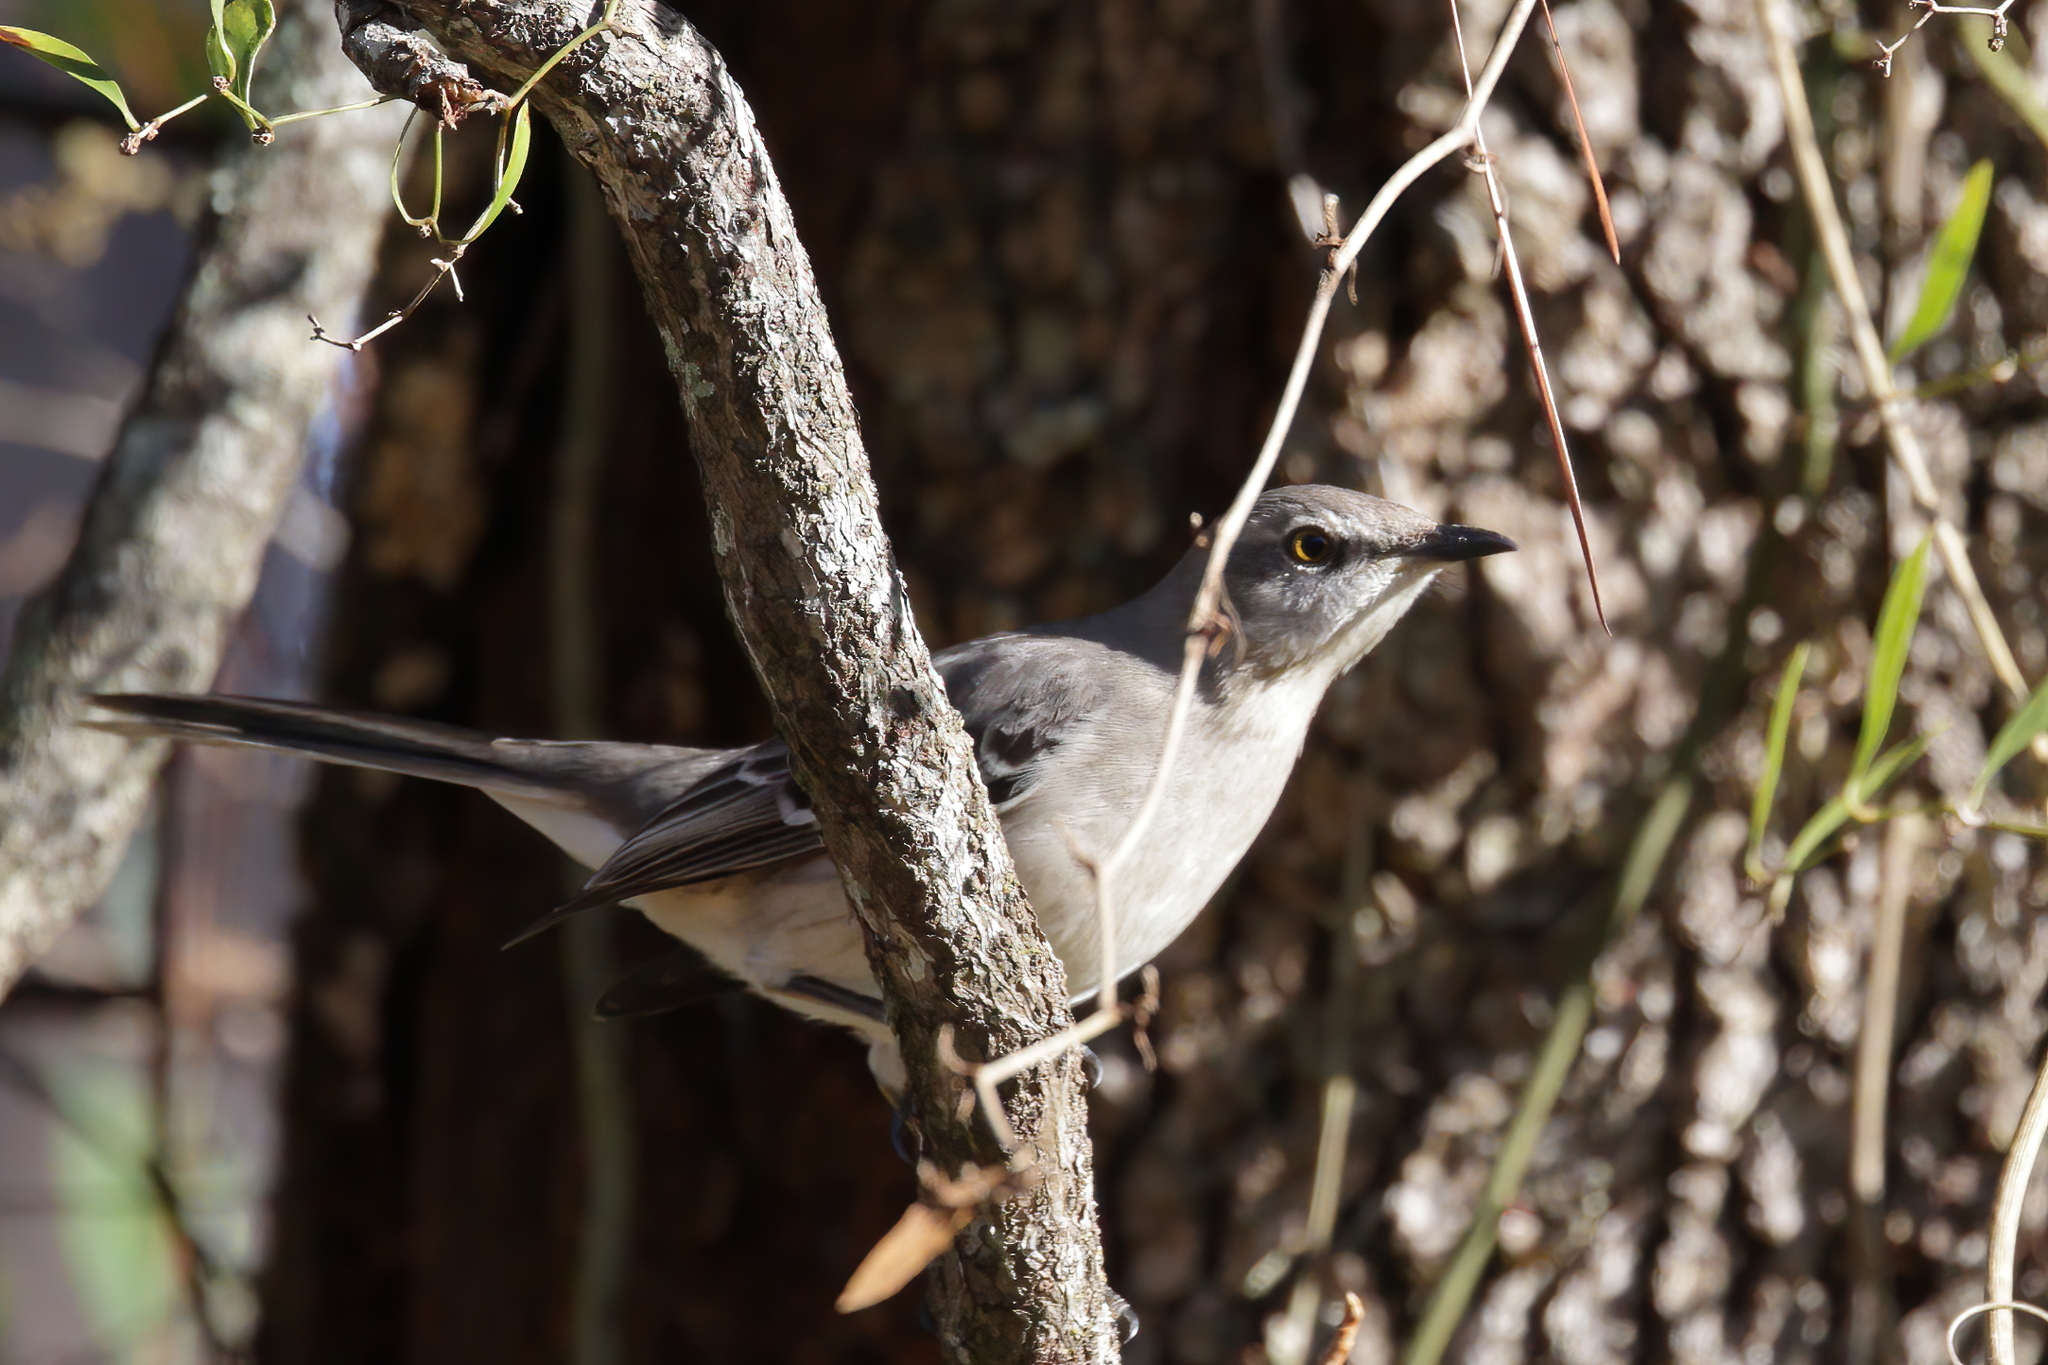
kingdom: Animalia
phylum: Chordata
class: Aves
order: Passeriformes
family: Mimidae
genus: Mimus
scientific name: Mimus polyglottos
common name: Northern mockingbird
